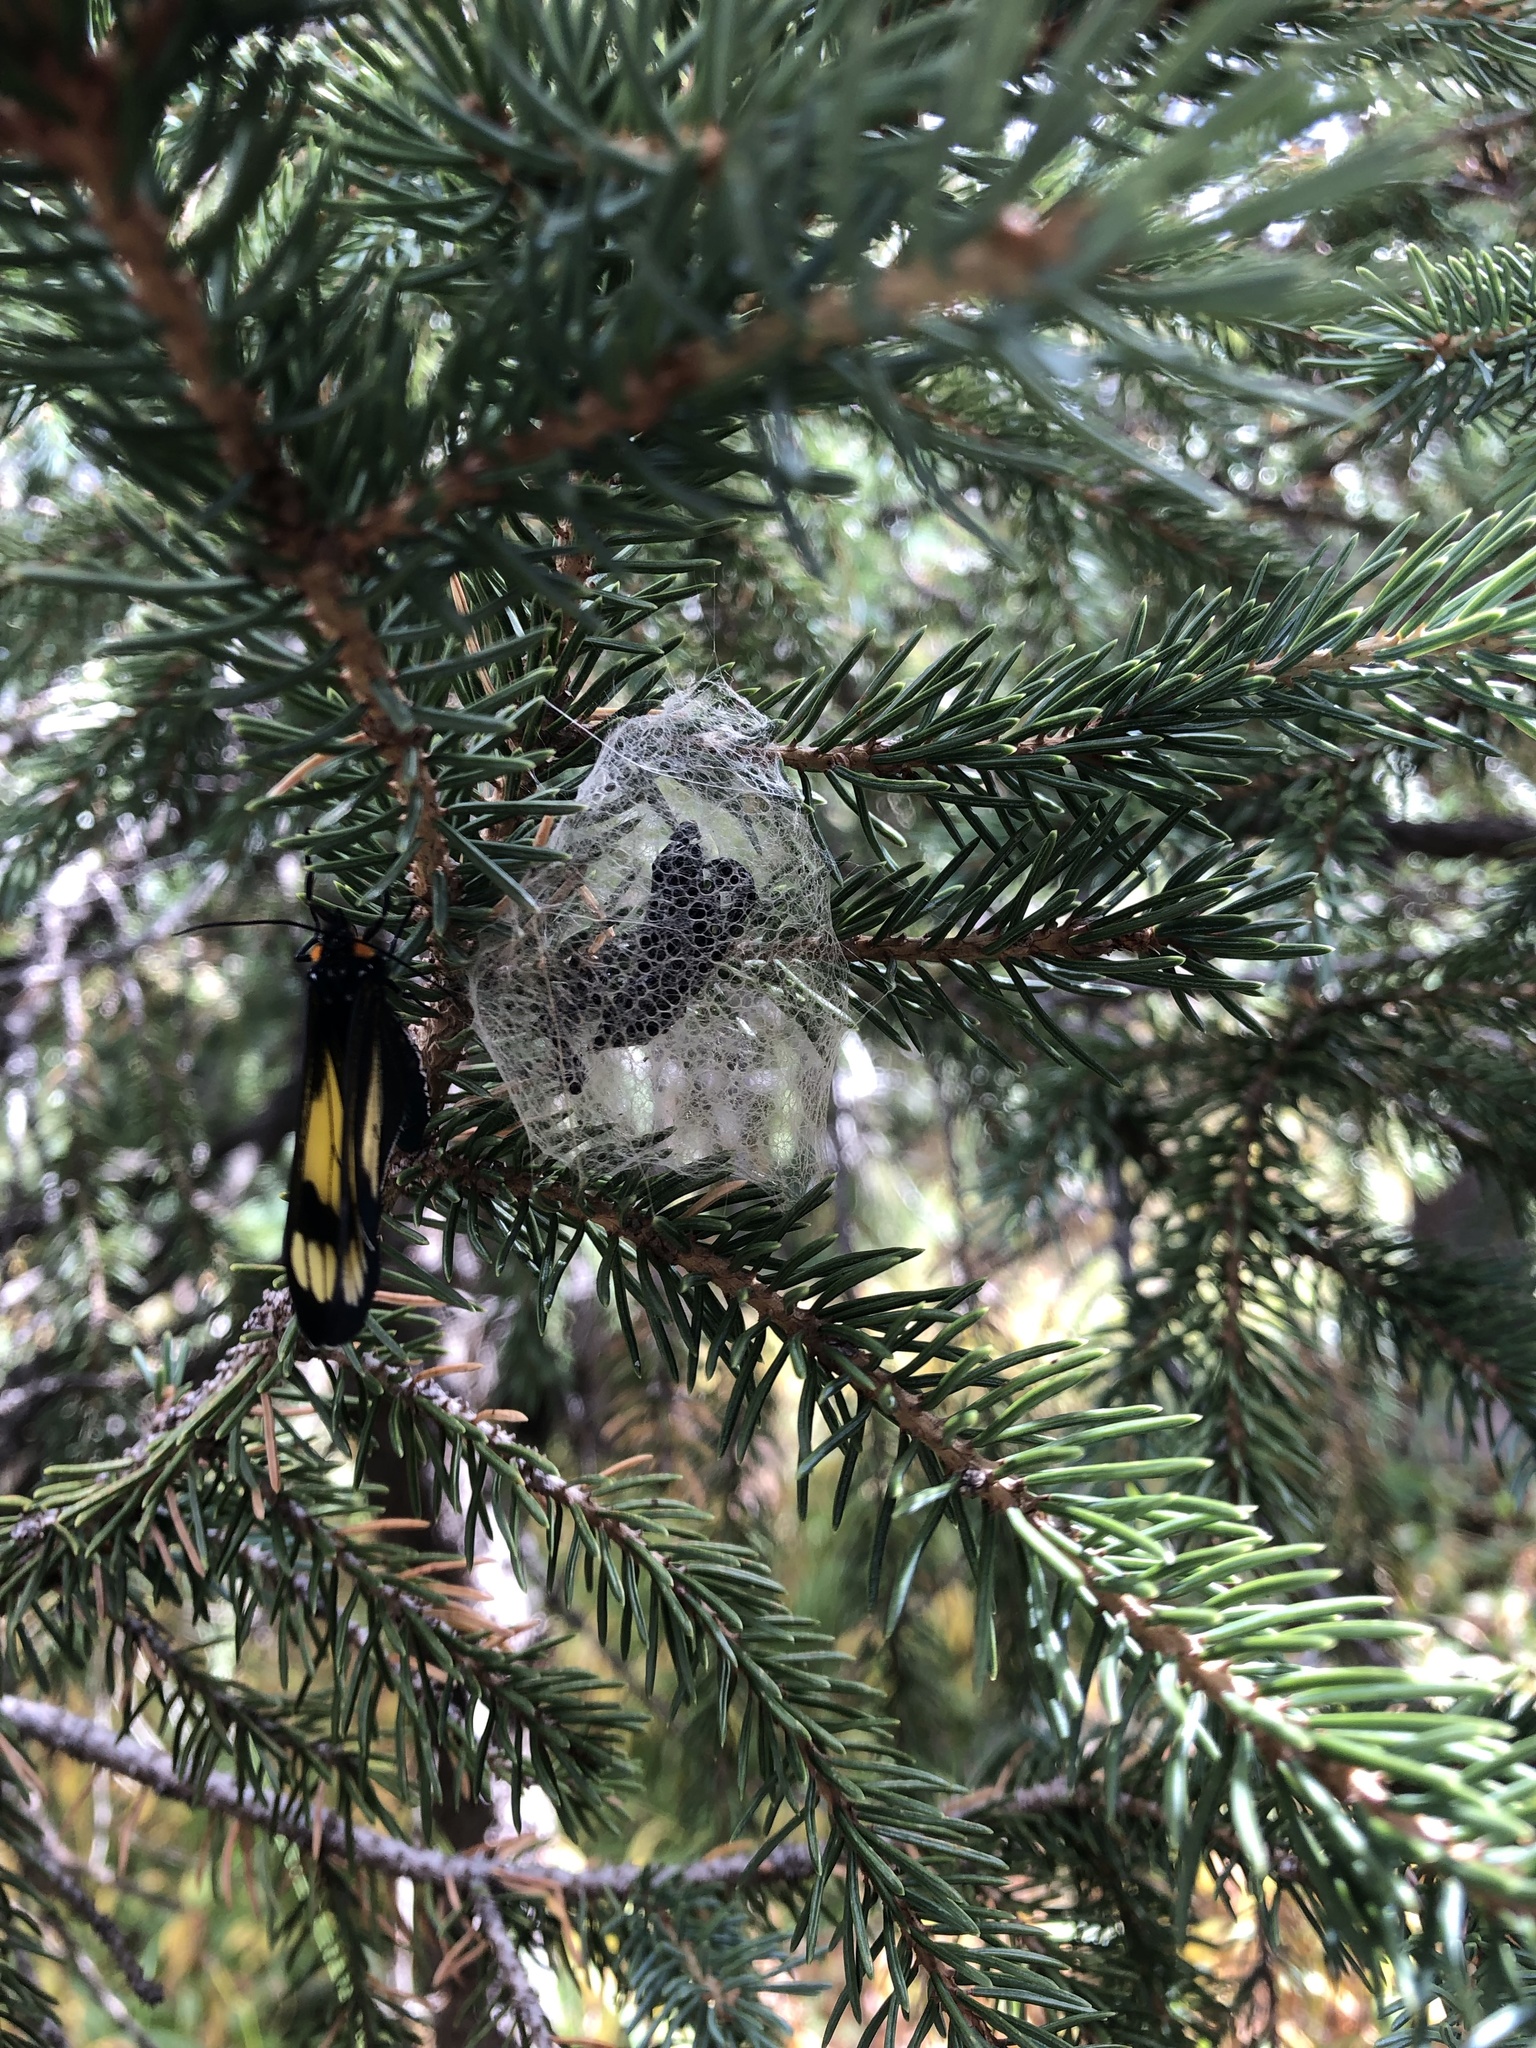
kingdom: Animalia
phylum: Arthropoda
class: Insecta
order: Lepidoptera
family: Erebidae
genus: Gnophaela
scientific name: Gnophaela vermiculata
